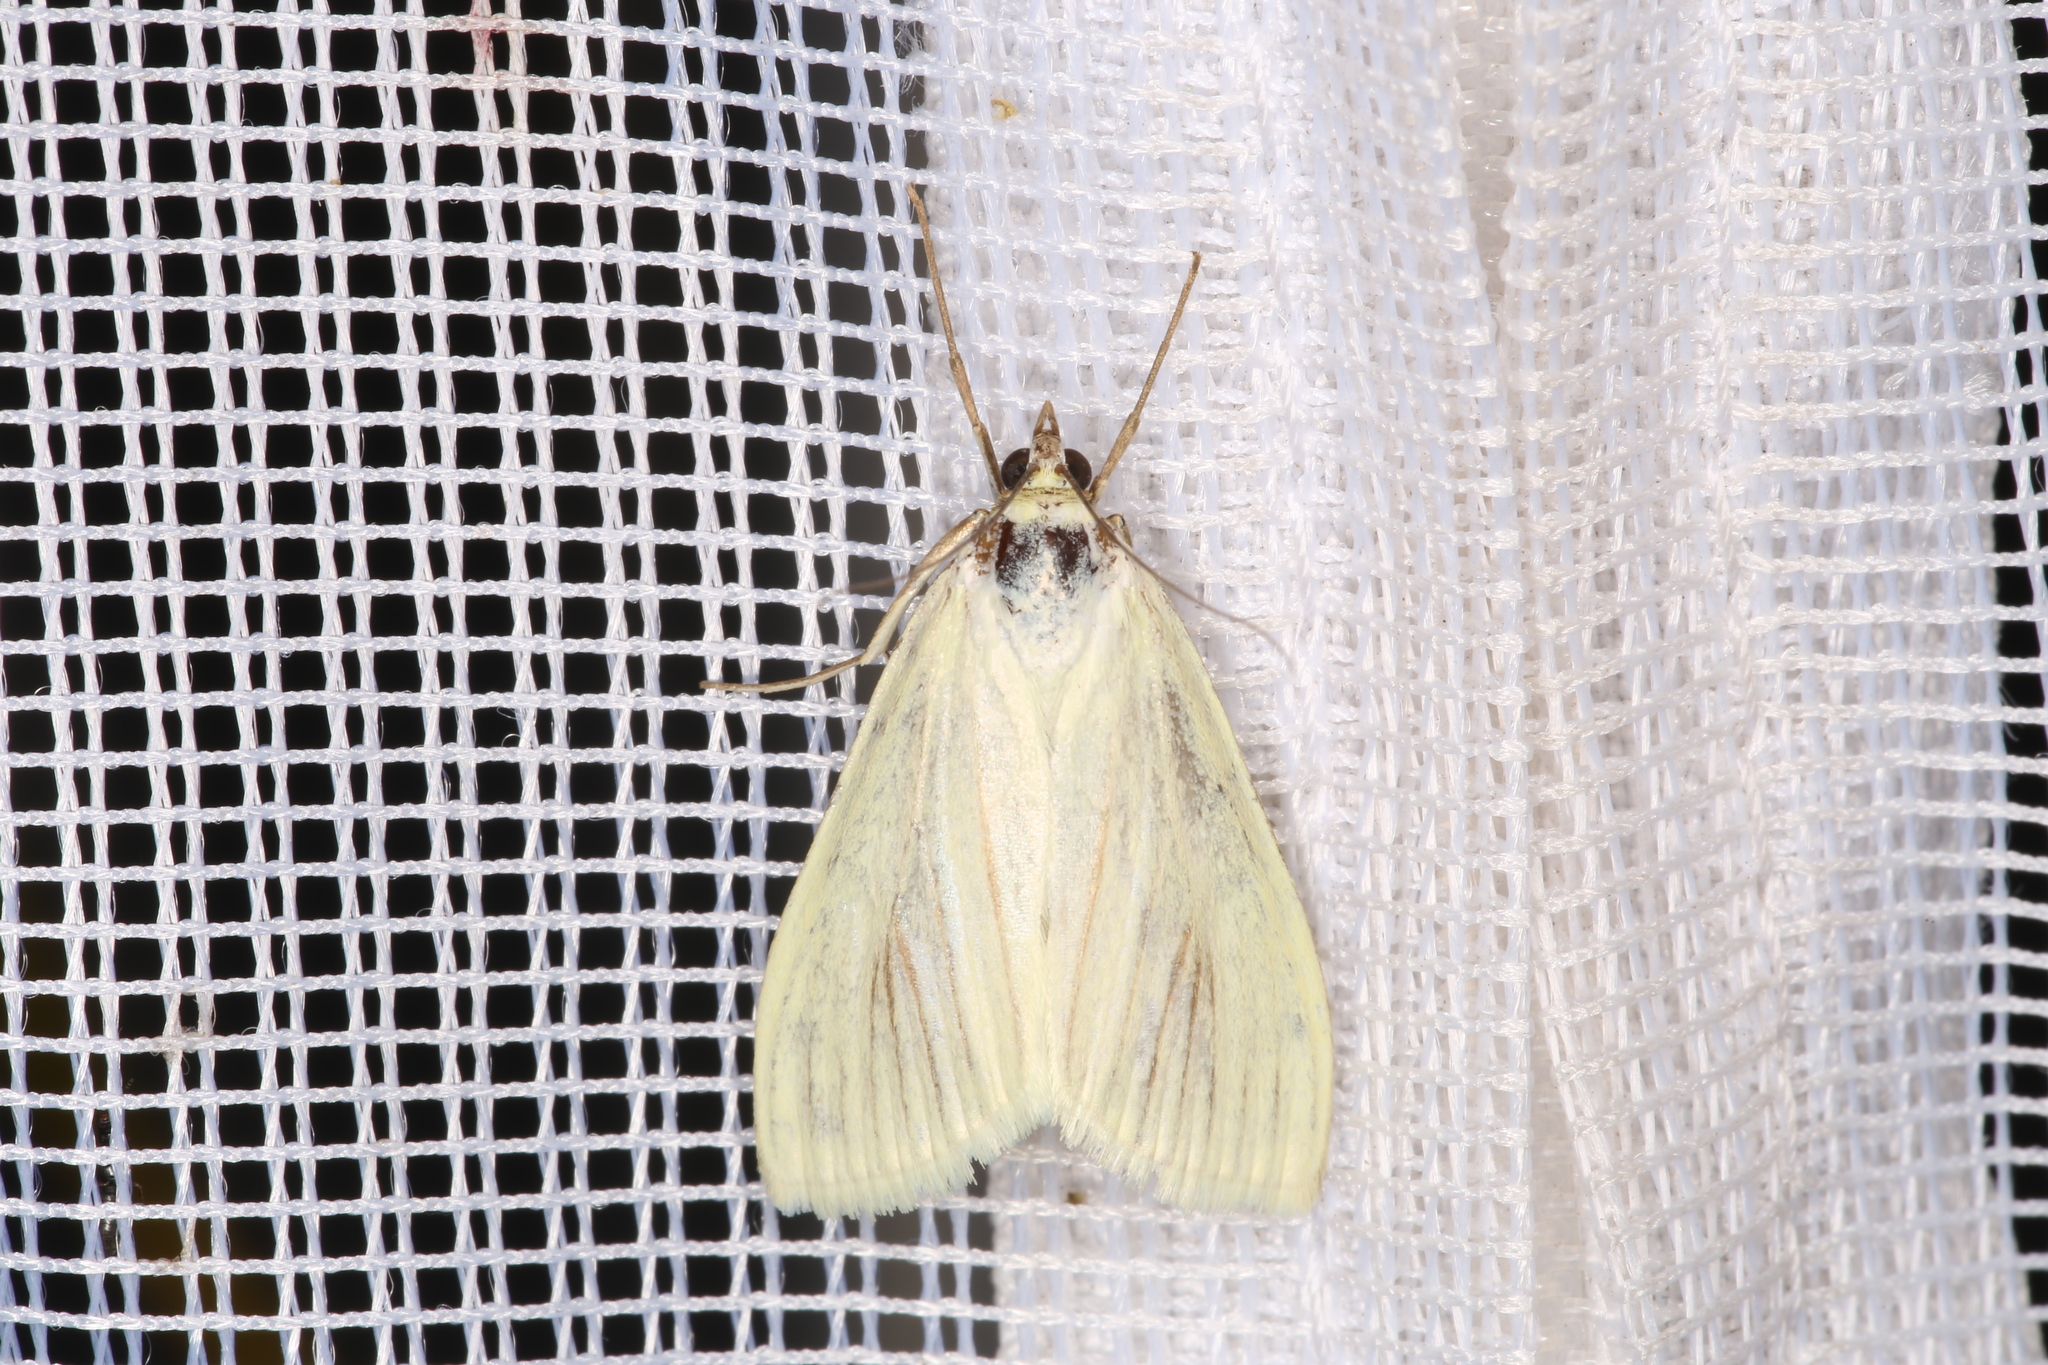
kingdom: Animalia
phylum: Arthropoda
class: Insecta
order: Lepidoptera
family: Crambidae
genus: Sitochroa
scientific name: Sitochroa palealis
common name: Greenish-yellow sitochroa moth
